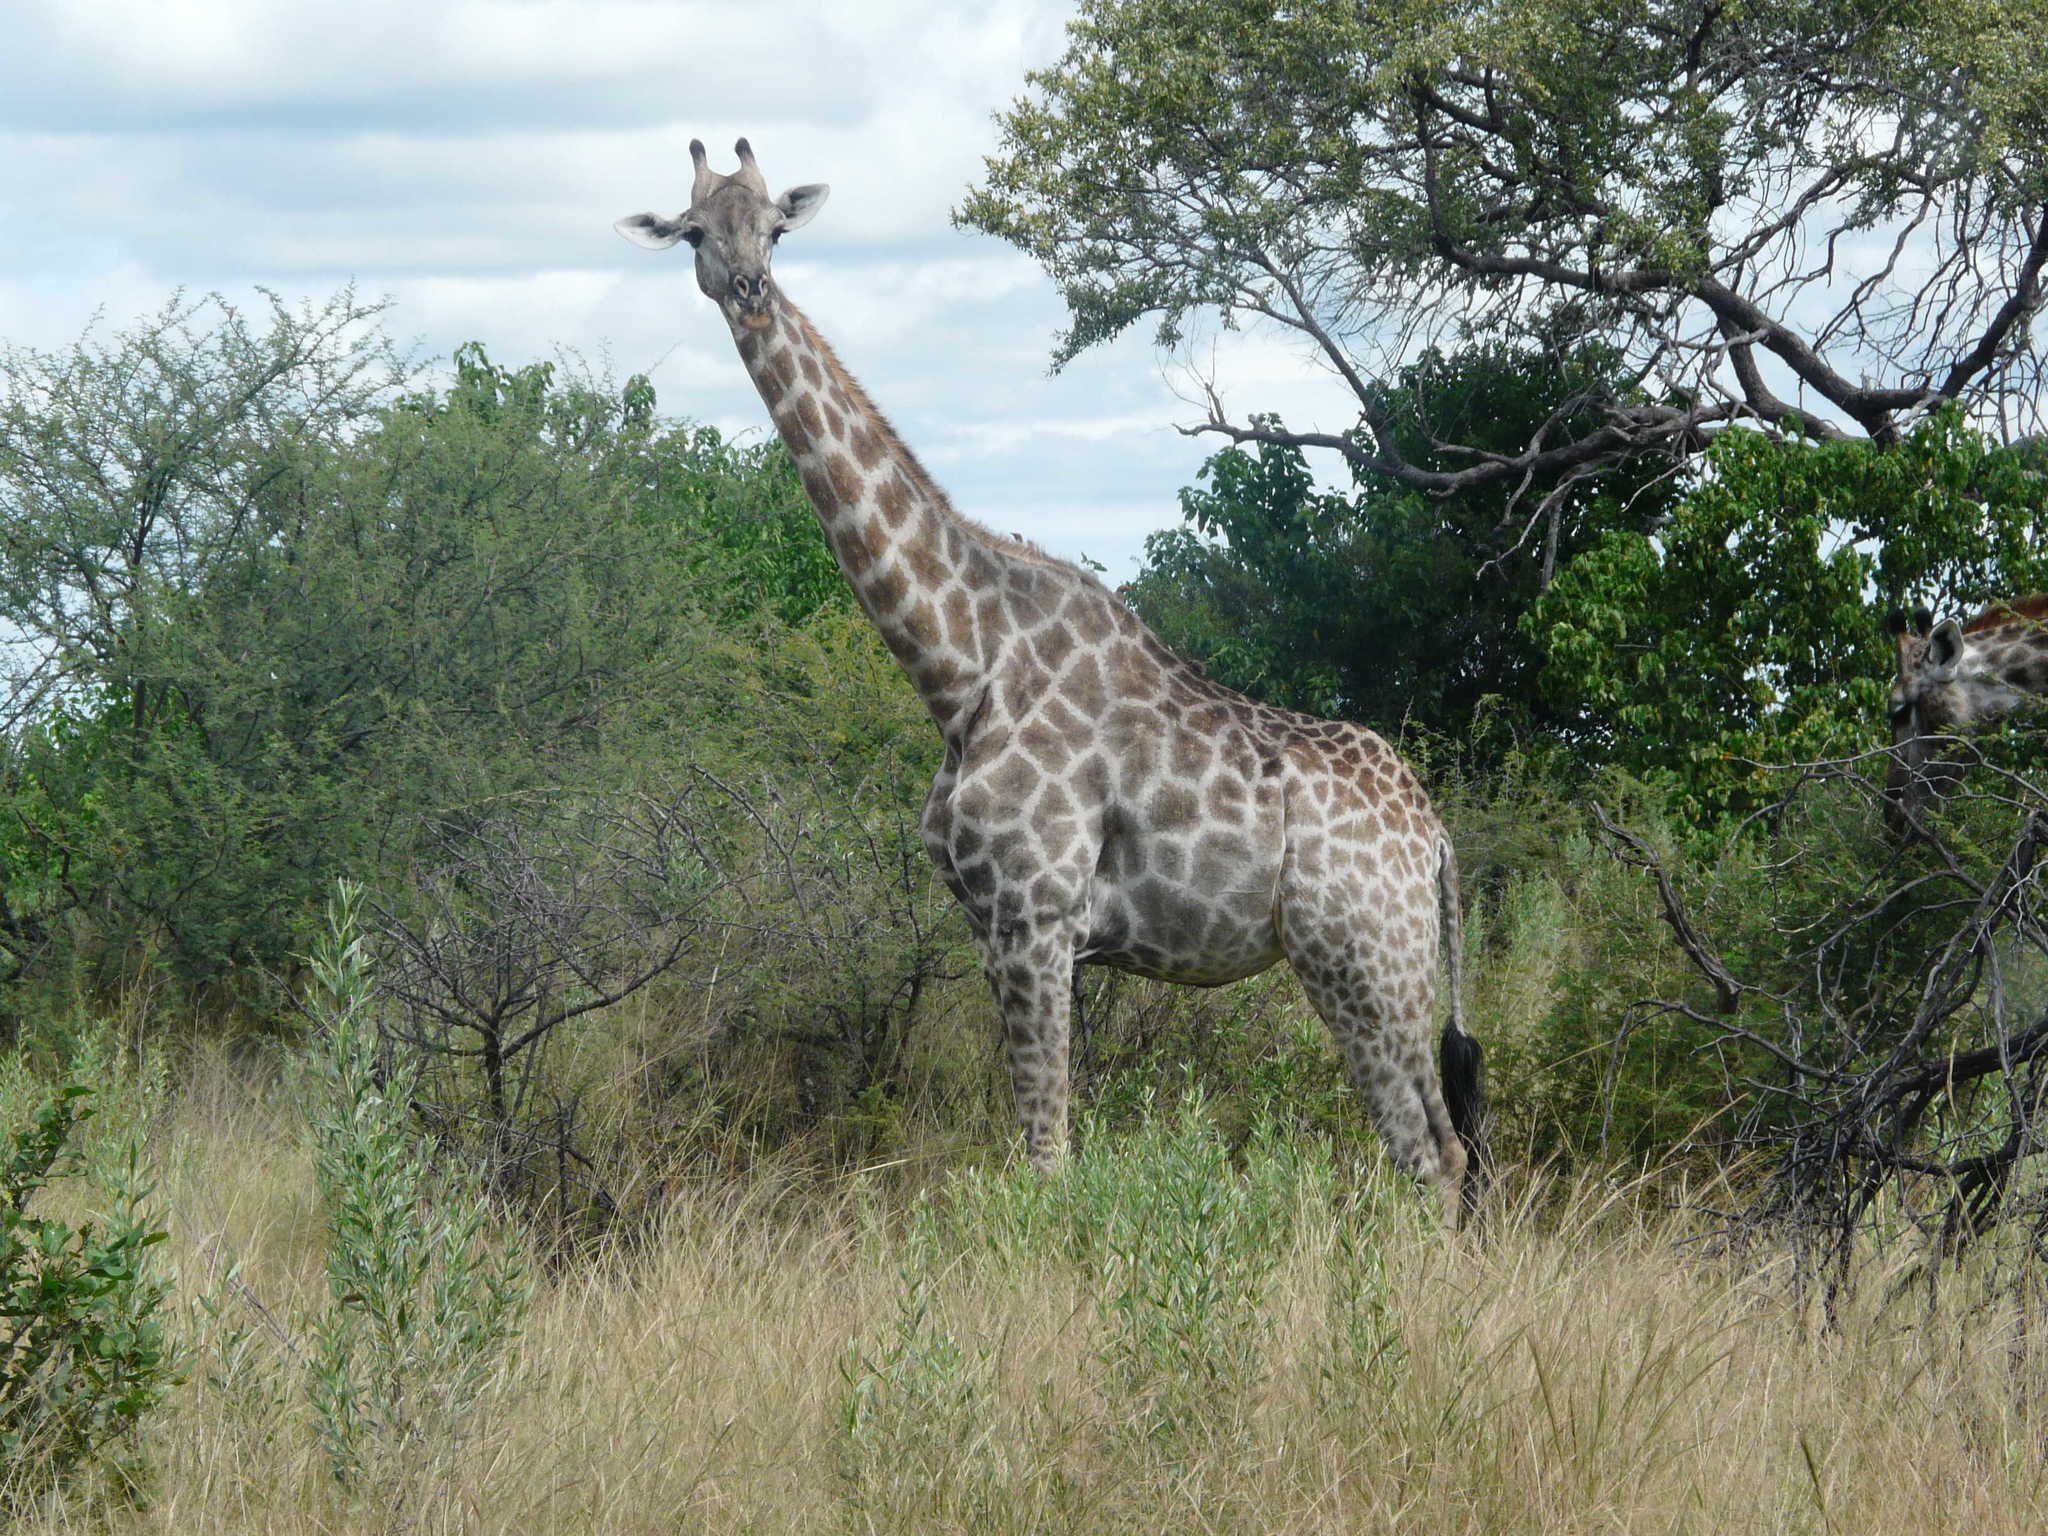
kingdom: Animalia
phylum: Chordata
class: Mammalia
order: Artiodactyla
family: Giraffidae
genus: Giraffa
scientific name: Giraffa giraffa
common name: Southern giraffe
